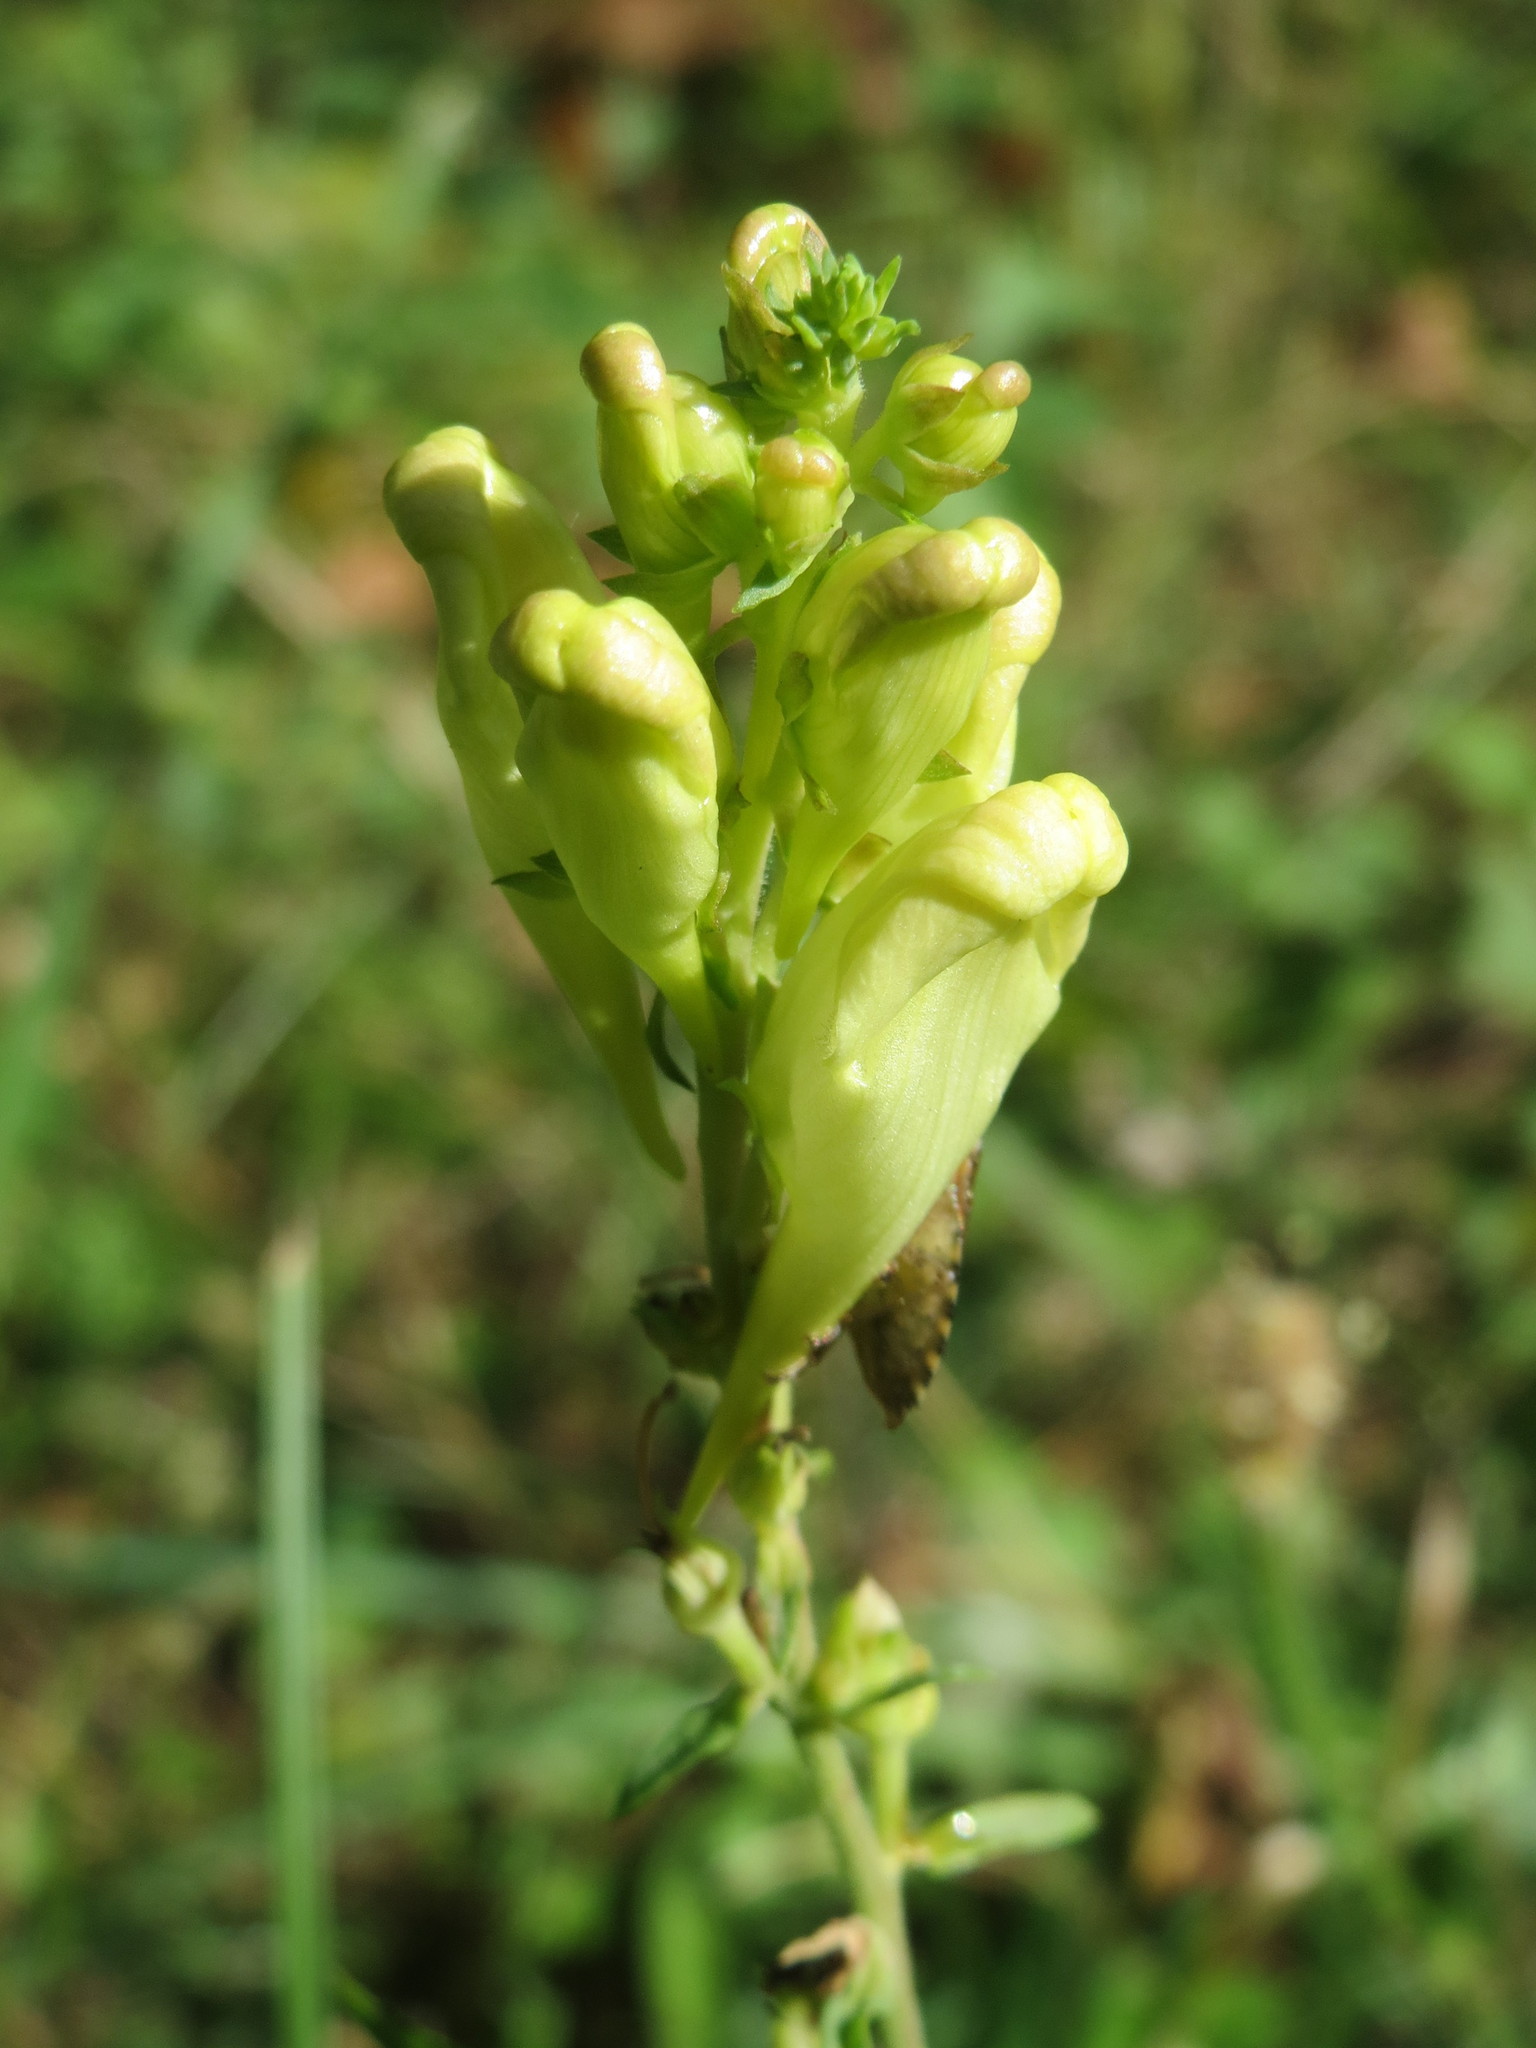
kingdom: Plantae
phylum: Tracheophyta
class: Magnoliopsida
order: Lamiales
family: Plantaginaceae
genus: Linaria
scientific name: Linaria vulgaris
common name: Butter and eggs
